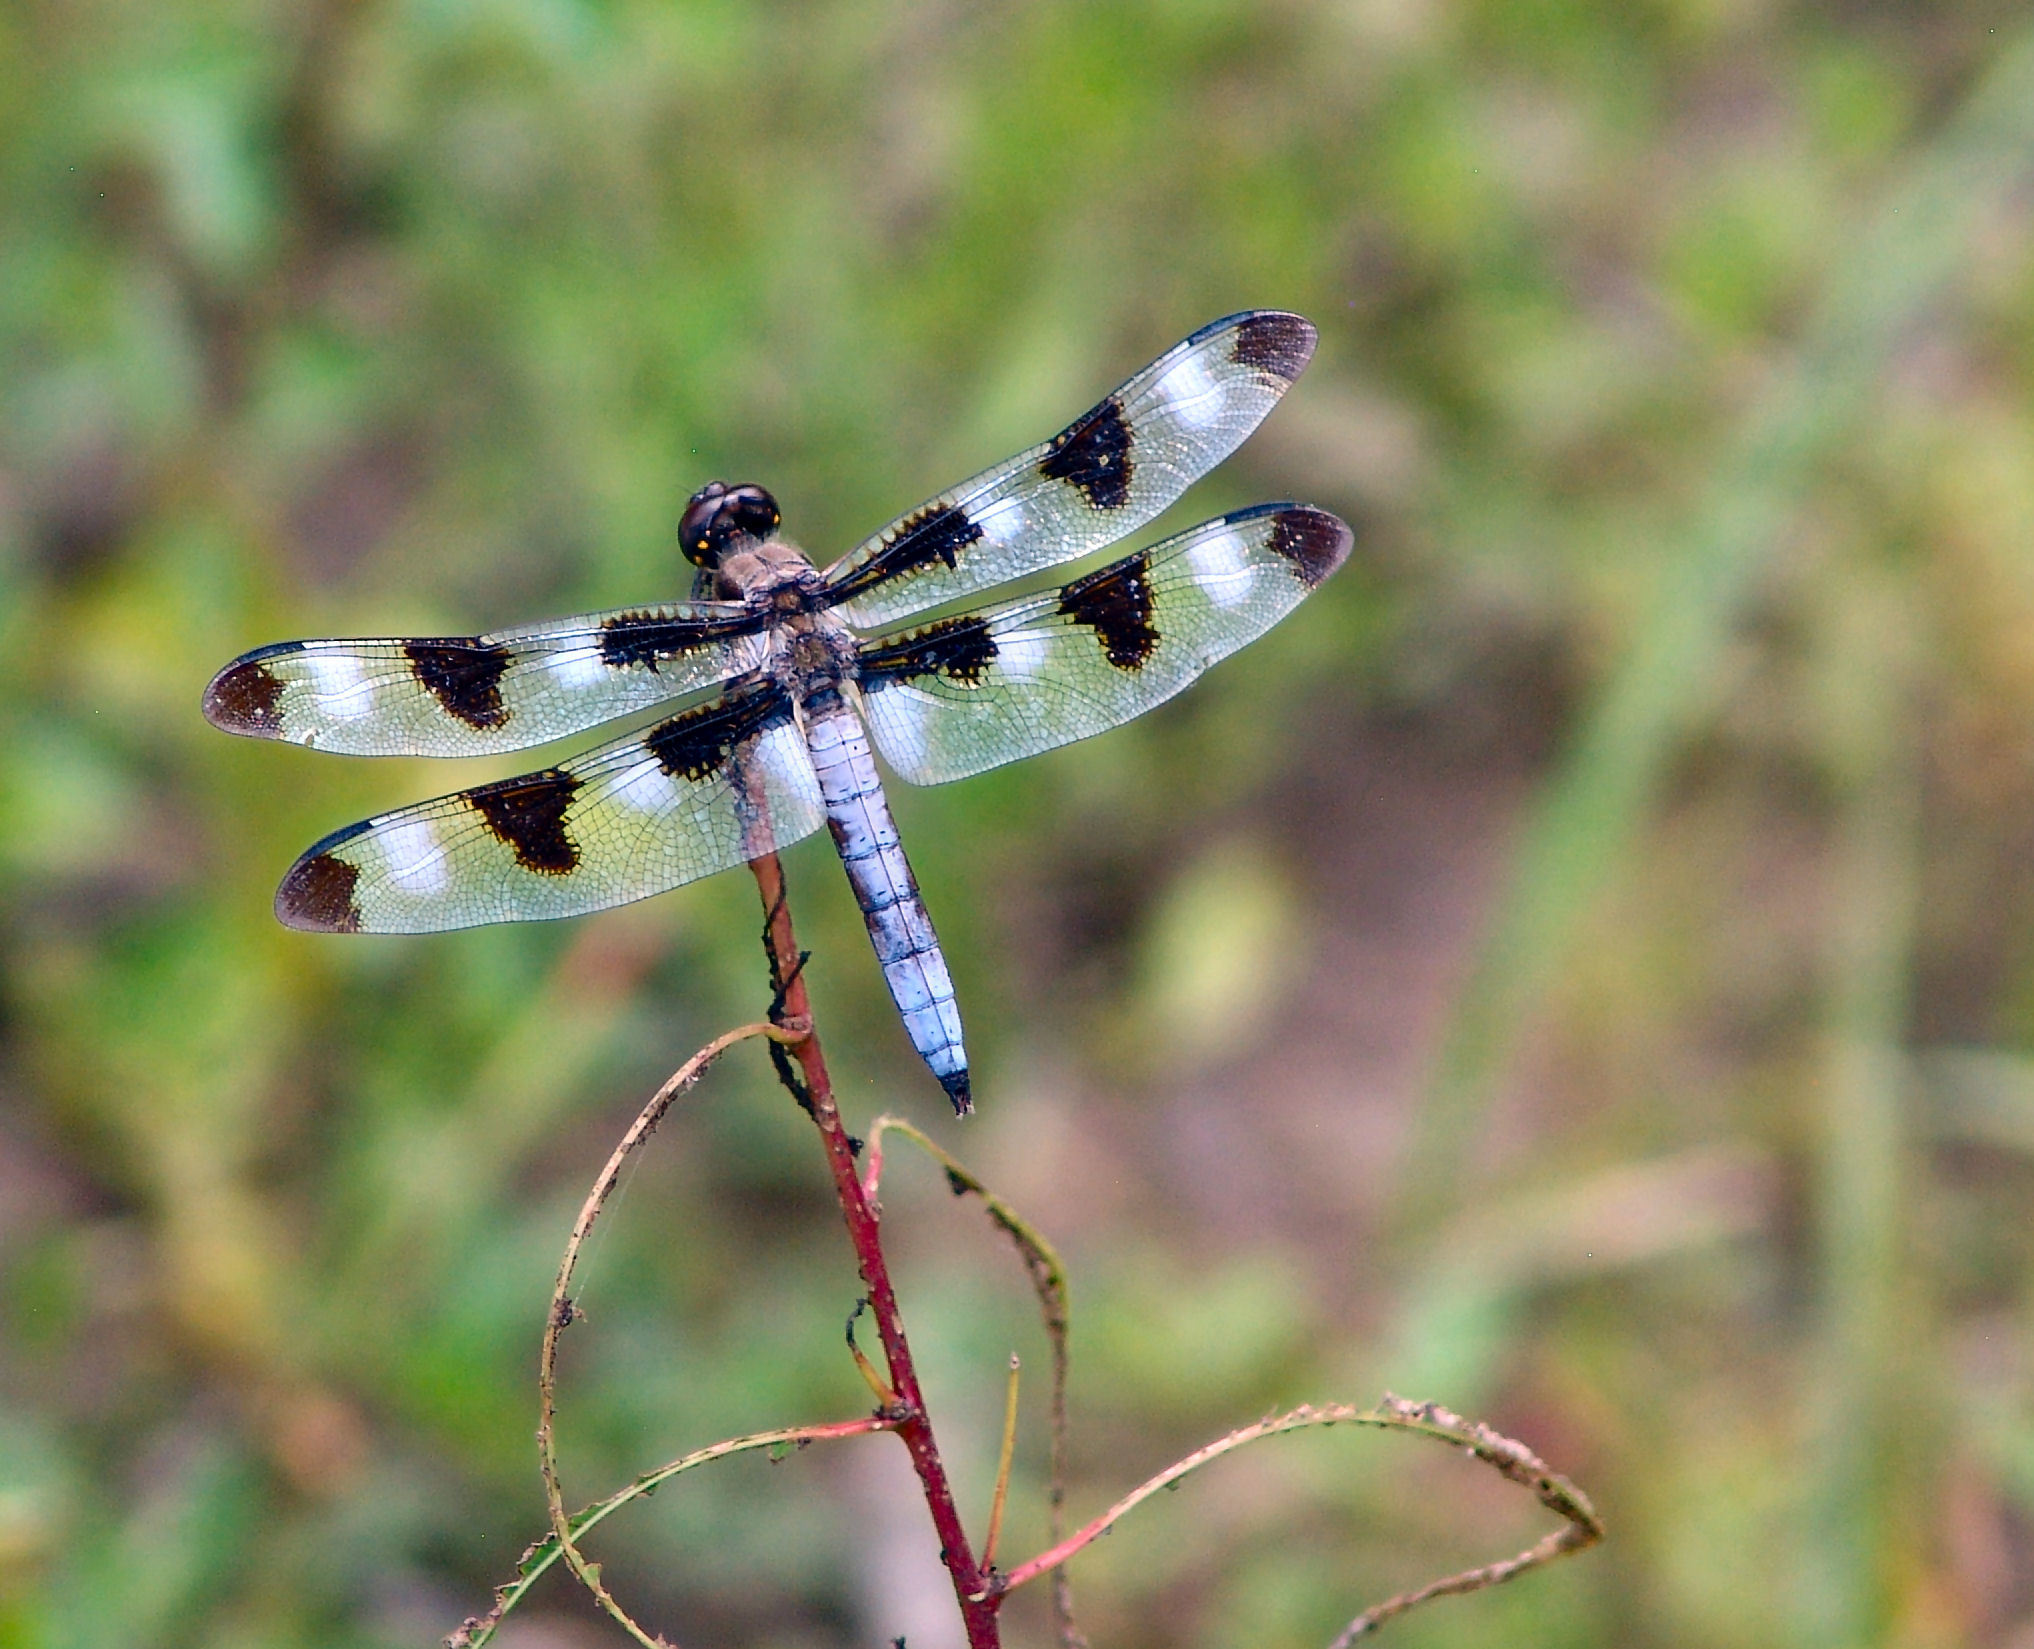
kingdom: Animalia
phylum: Arthropoda
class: Insecta
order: Odonata
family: Libellulidae
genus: Libellula
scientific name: Libellula pulchella
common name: Twelve-spotted skimmer
